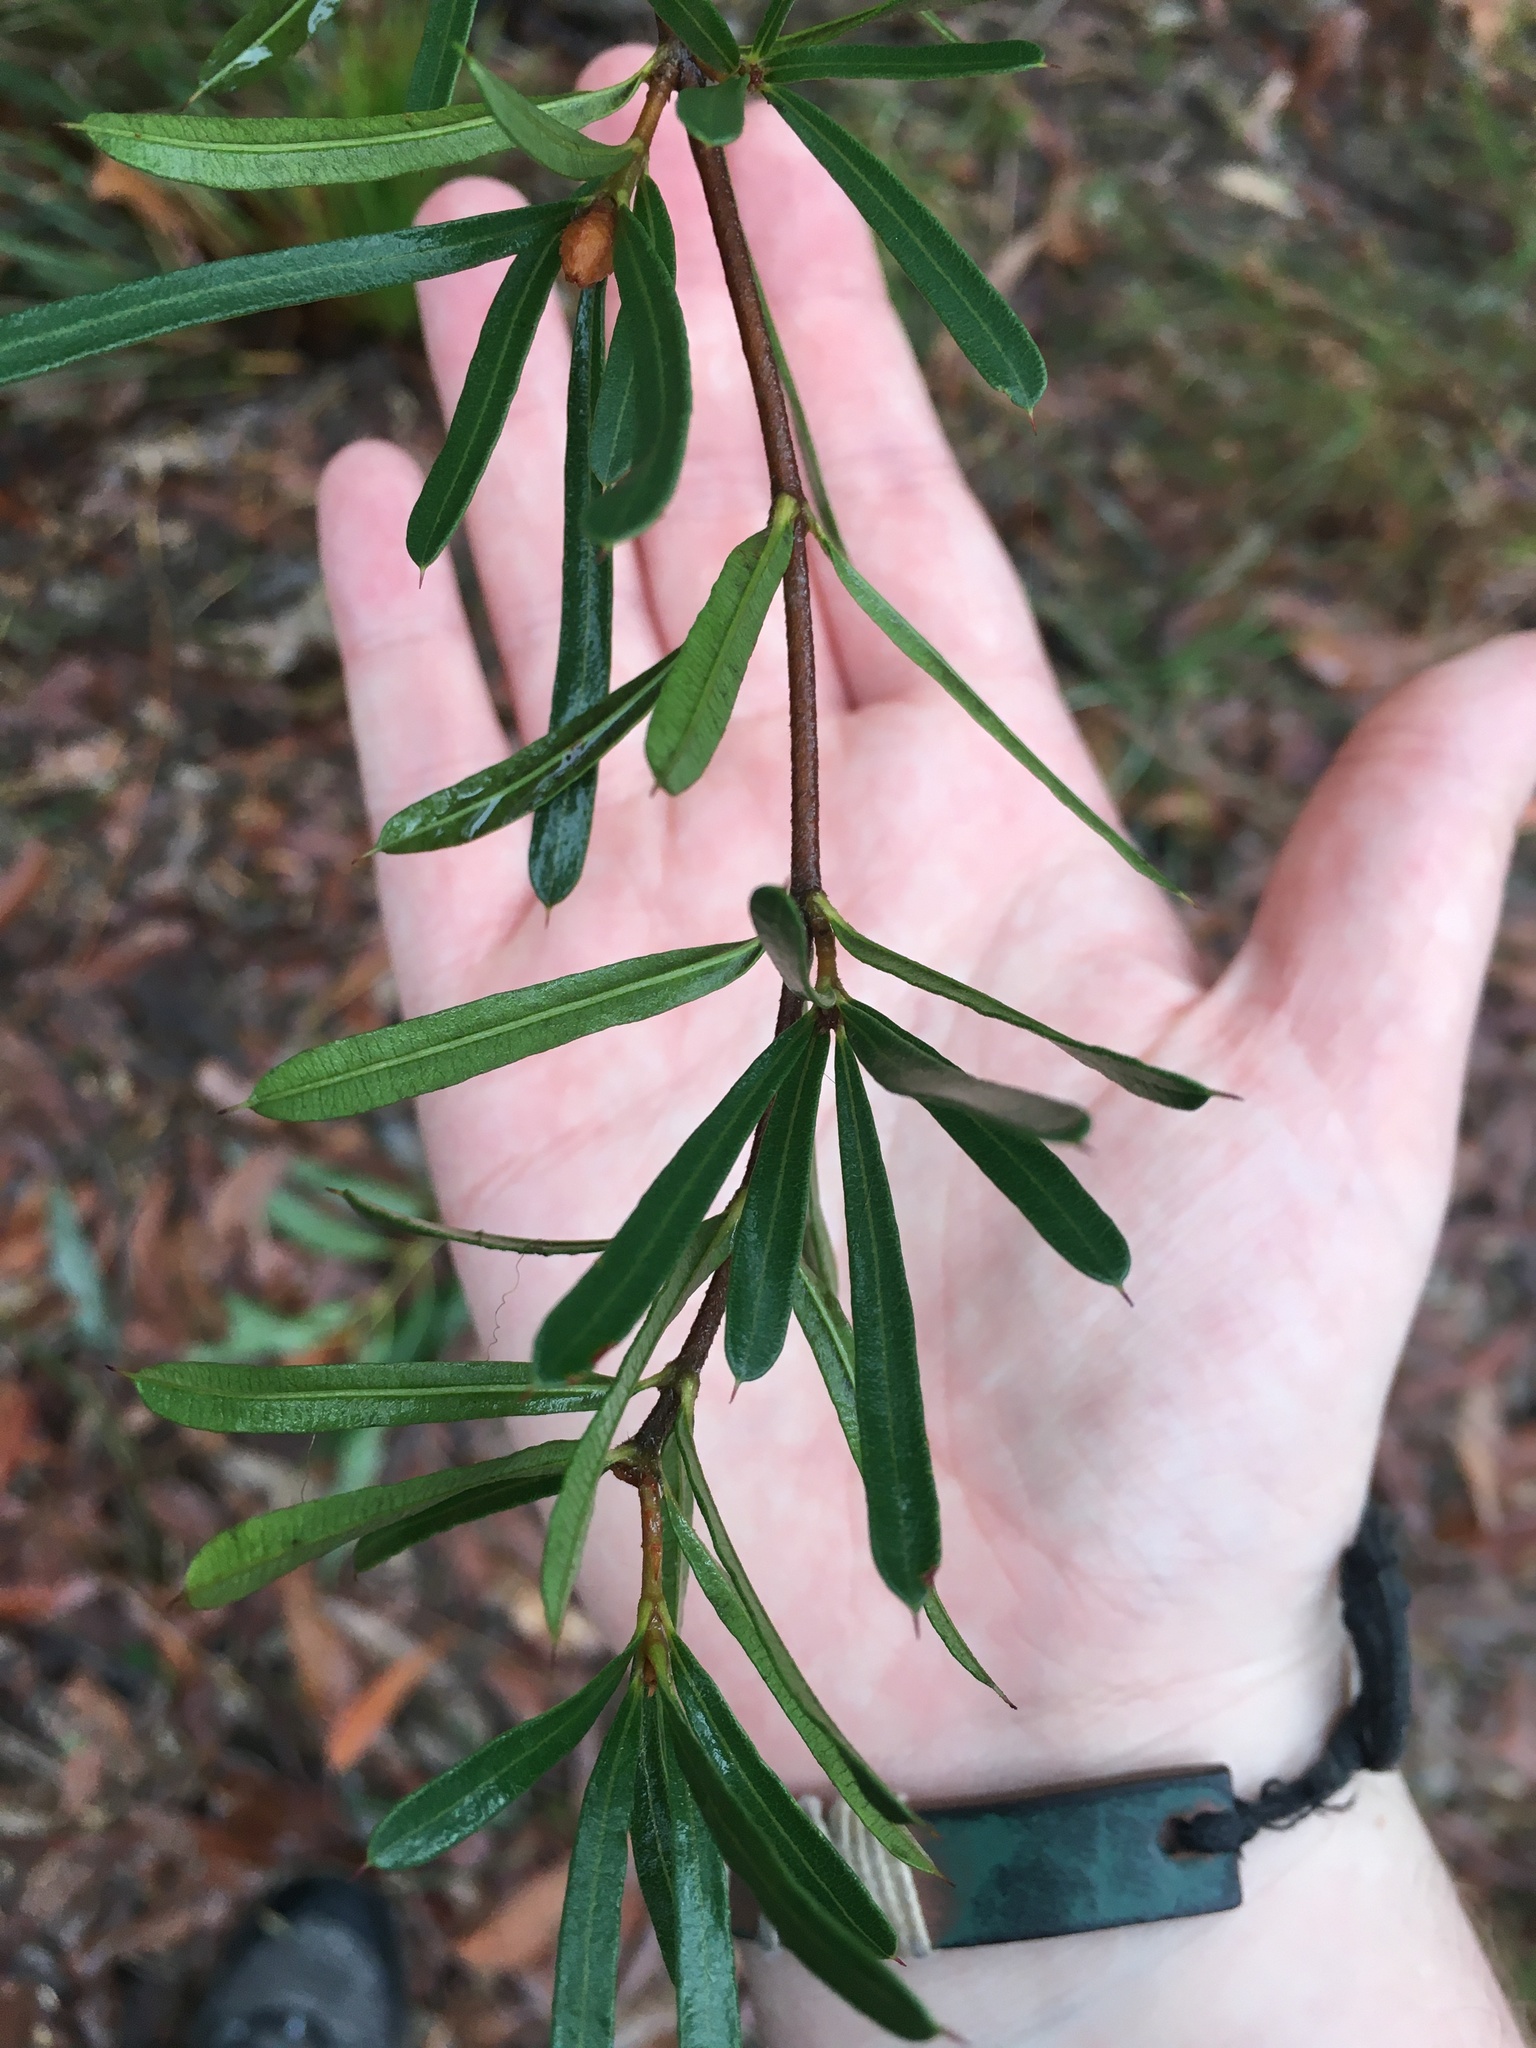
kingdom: Plantae
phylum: Tracheophyta
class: Magnoliopsida
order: Proteales
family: Proteaceae
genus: Lambertia
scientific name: Lambertia formosa
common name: Mountain-devil
